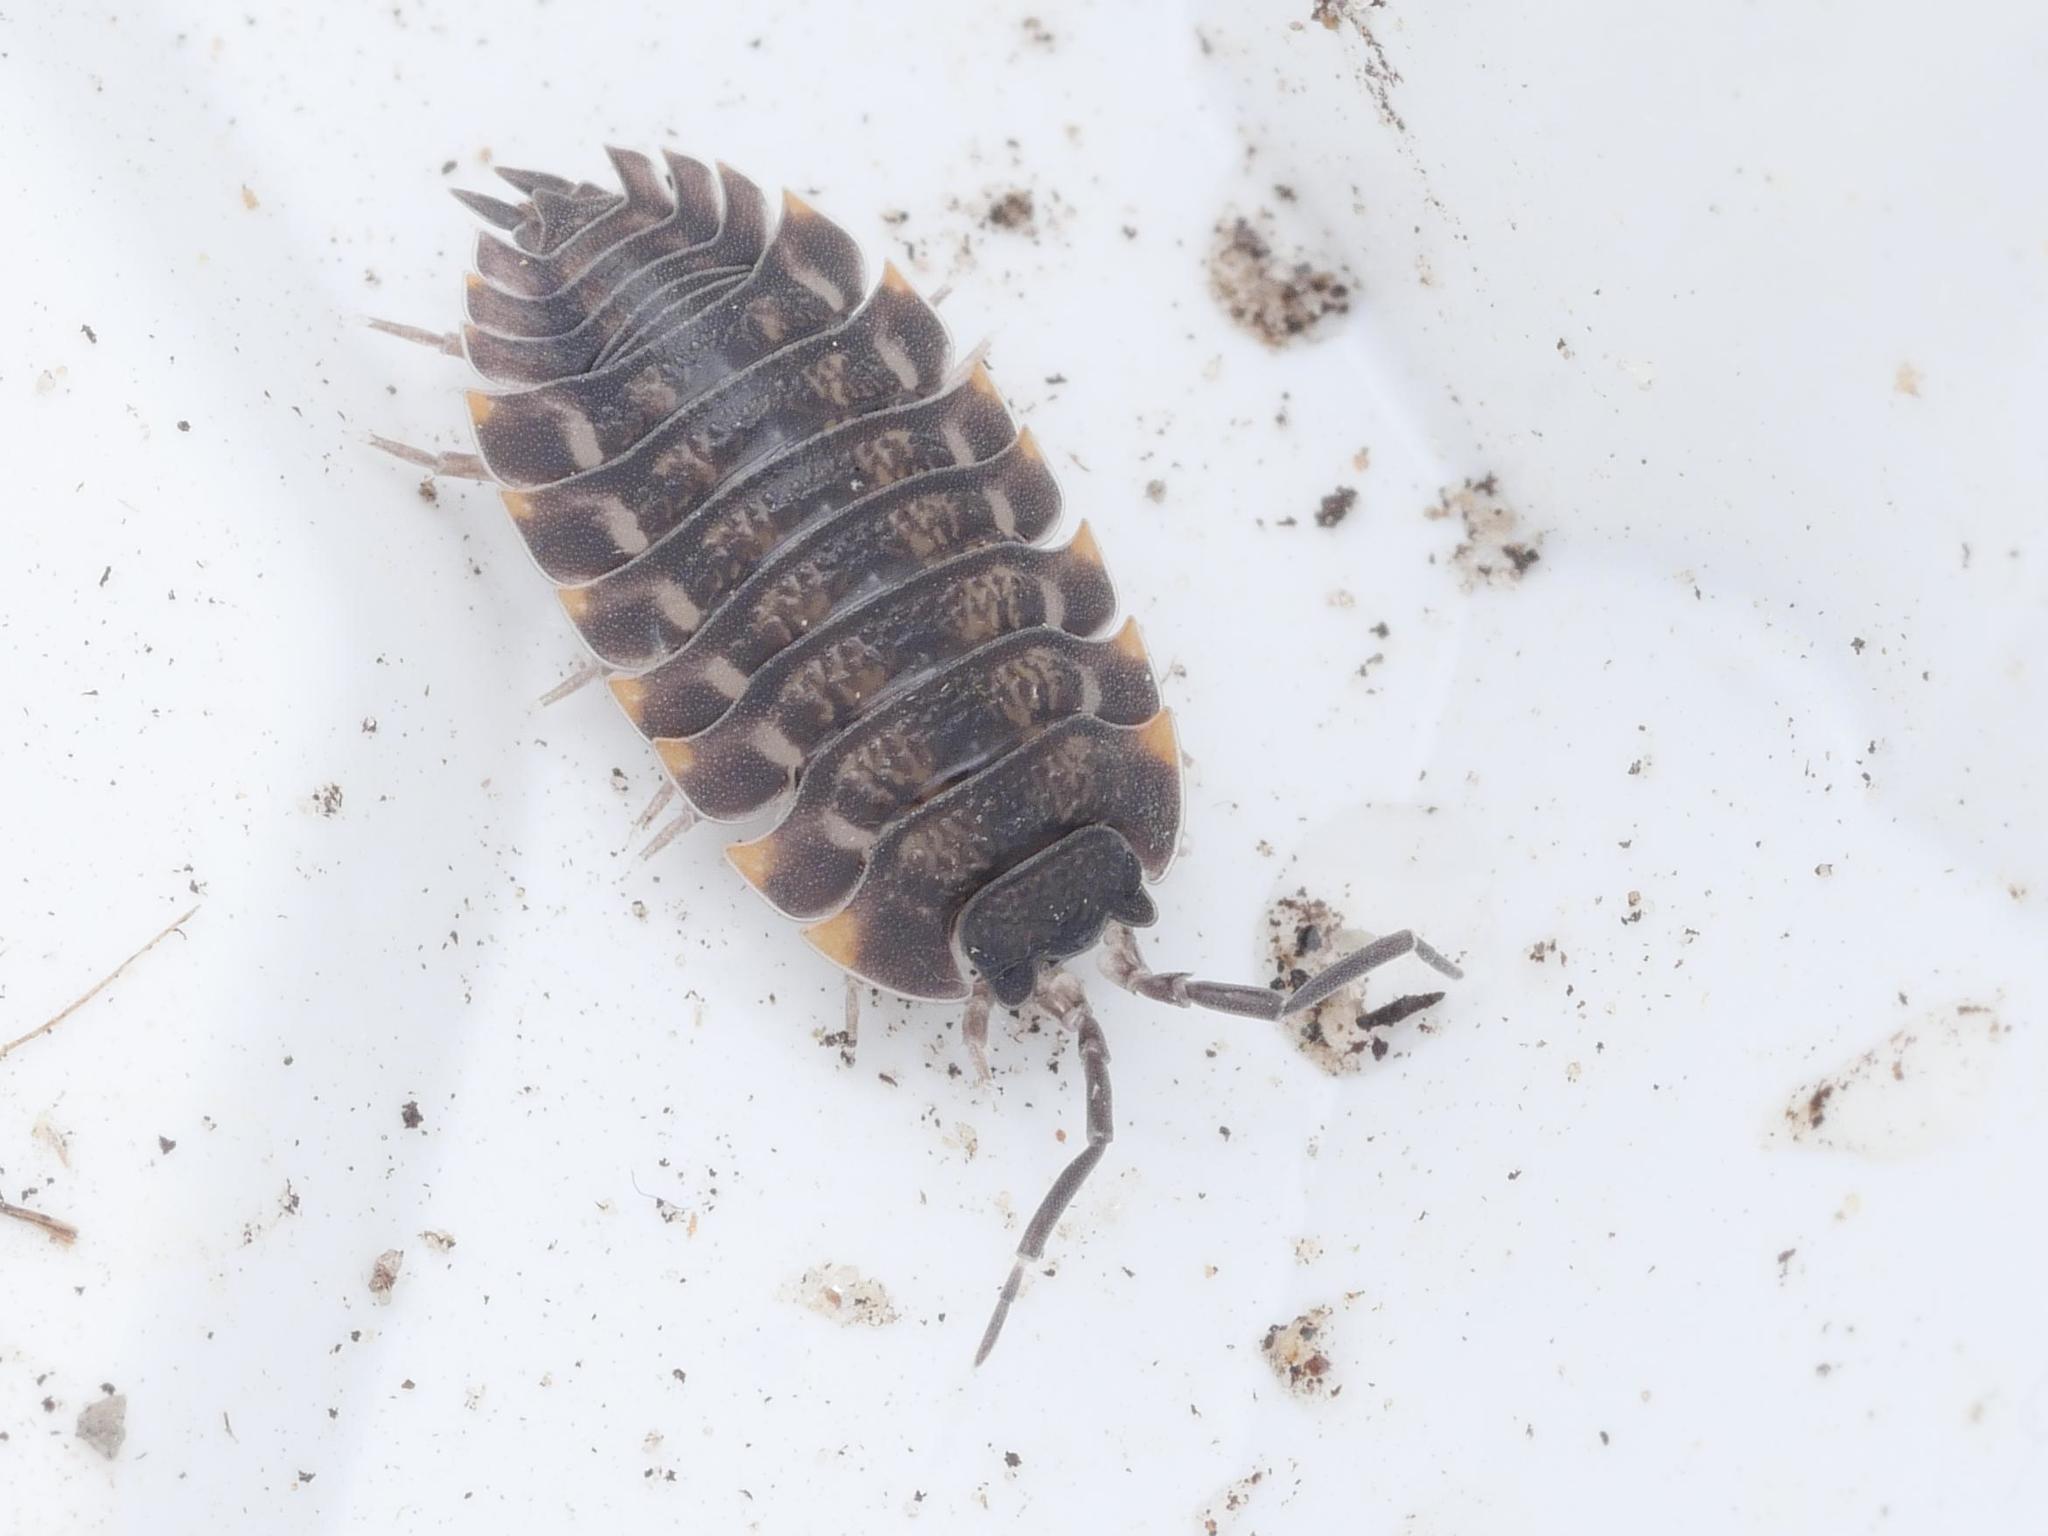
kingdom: Animalia
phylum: Arthropoda
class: Malacostraca
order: Isopoda
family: Trachelipodidae
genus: Trachelipus
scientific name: Trachelipus ratzeburgii
